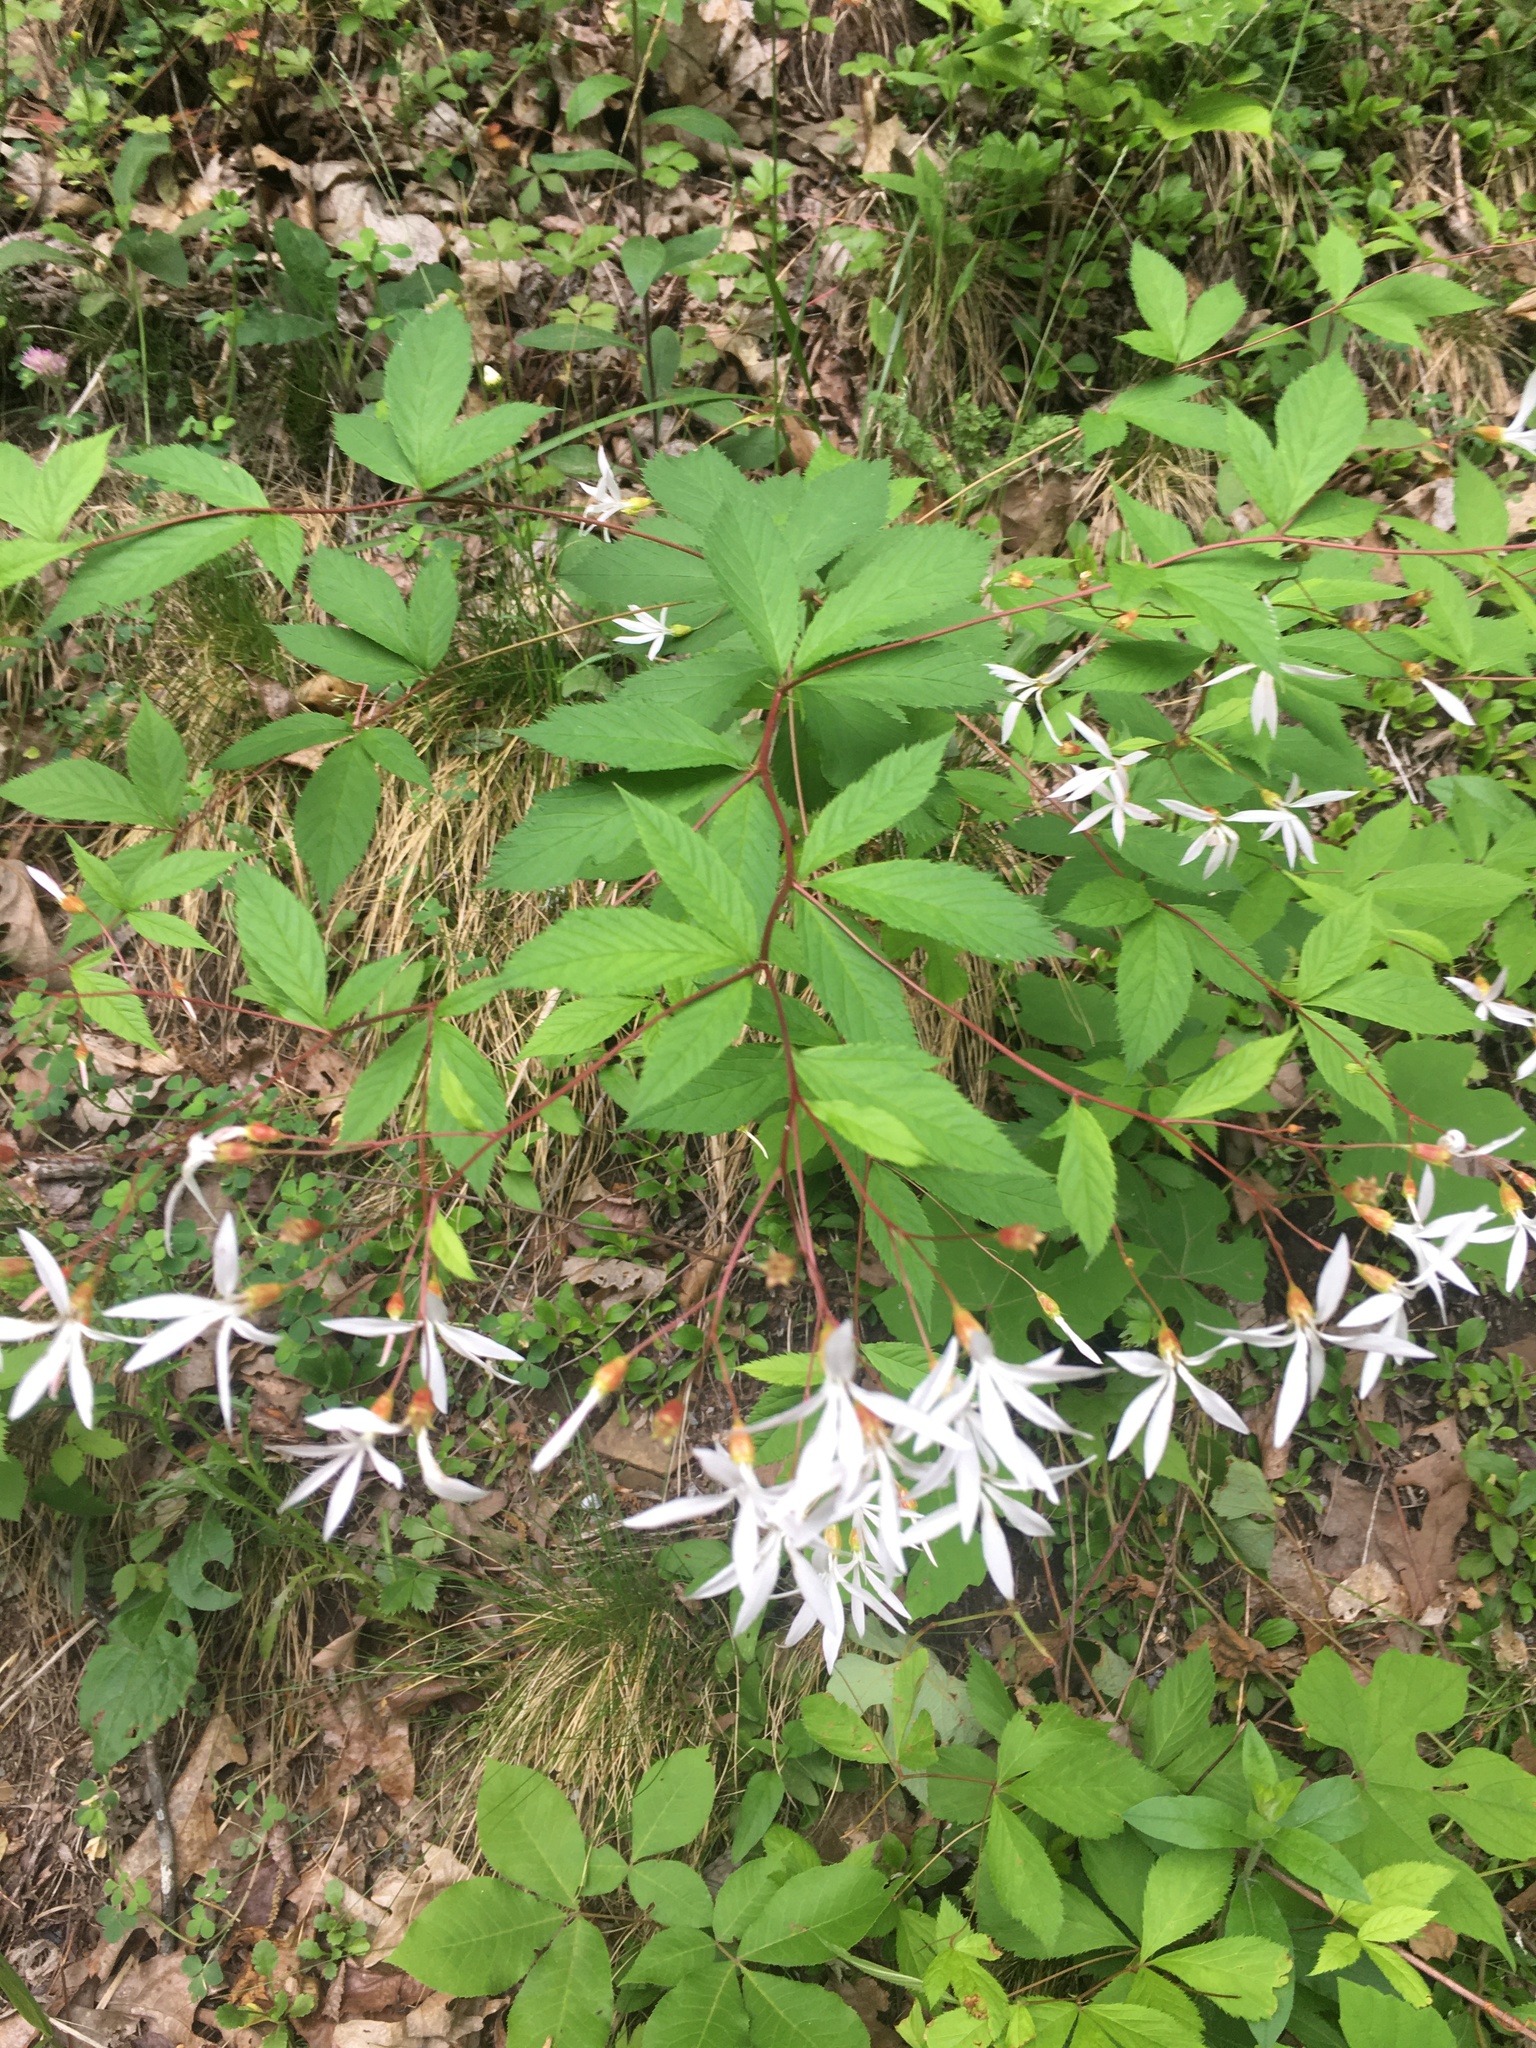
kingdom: Plantae
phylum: Tracheophyta
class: Magnoliopsida
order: Rosales
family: Rosaceae
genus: Gillenia
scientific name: Gillenia trifoliata
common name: Bowman's-root
